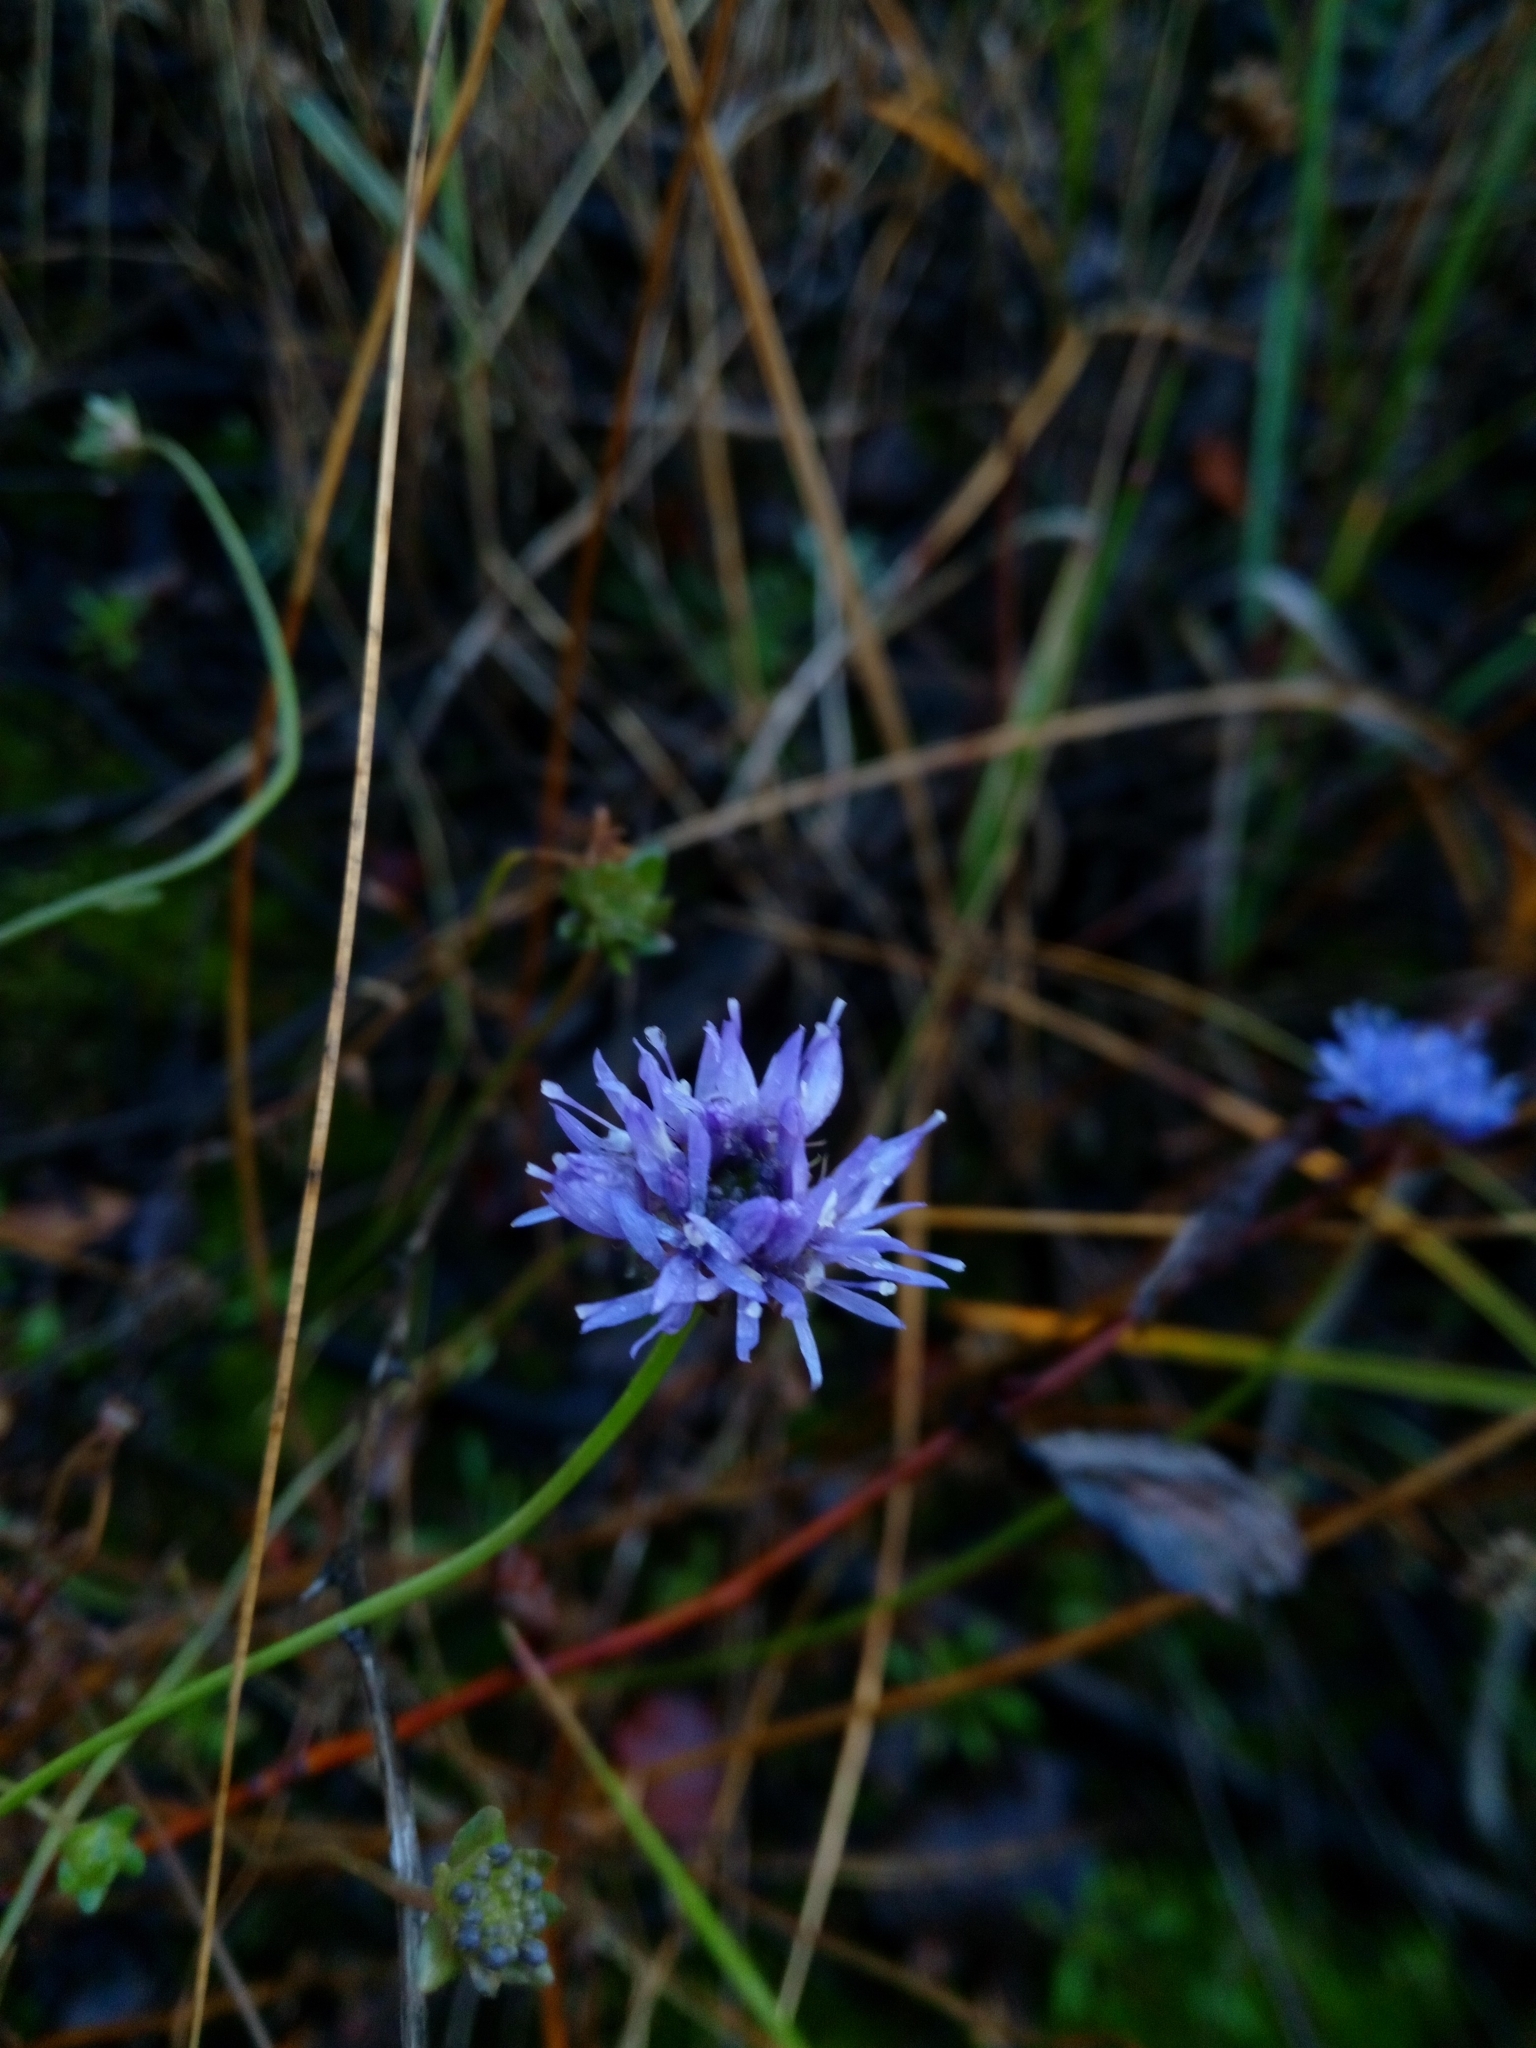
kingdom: Plantae
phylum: Tracheophyta
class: Magnoliopsida
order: Asterales
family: Campanulaceae
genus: Jasione
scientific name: Jasione montana
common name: Sheep's-bit
